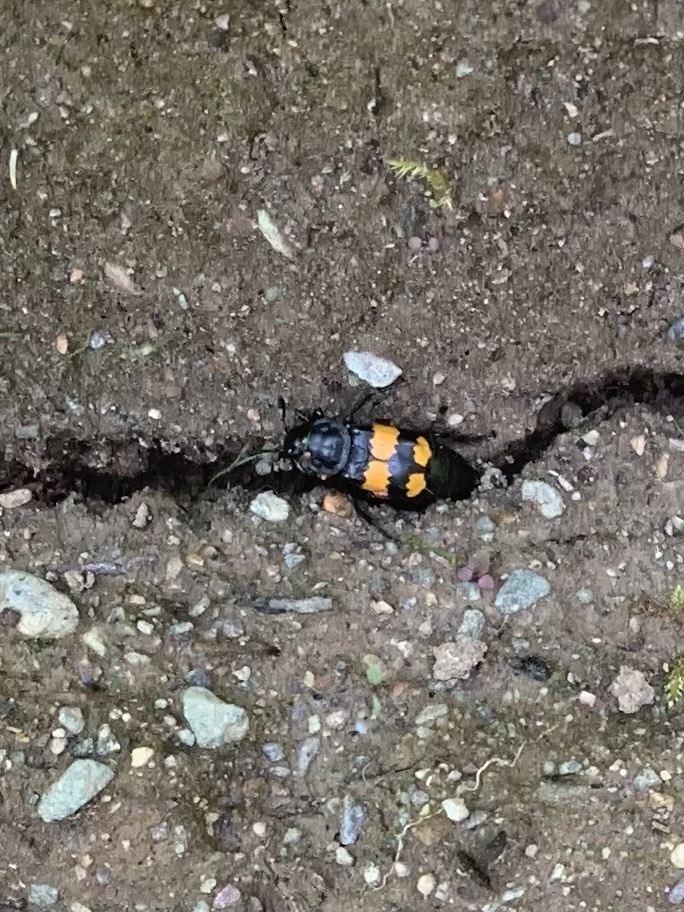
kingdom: Animalia
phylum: Arthropoda
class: Insecta
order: Coleoptera
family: Staphylinidae
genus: Nicrophorus
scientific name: Nicrophorus defodiens
